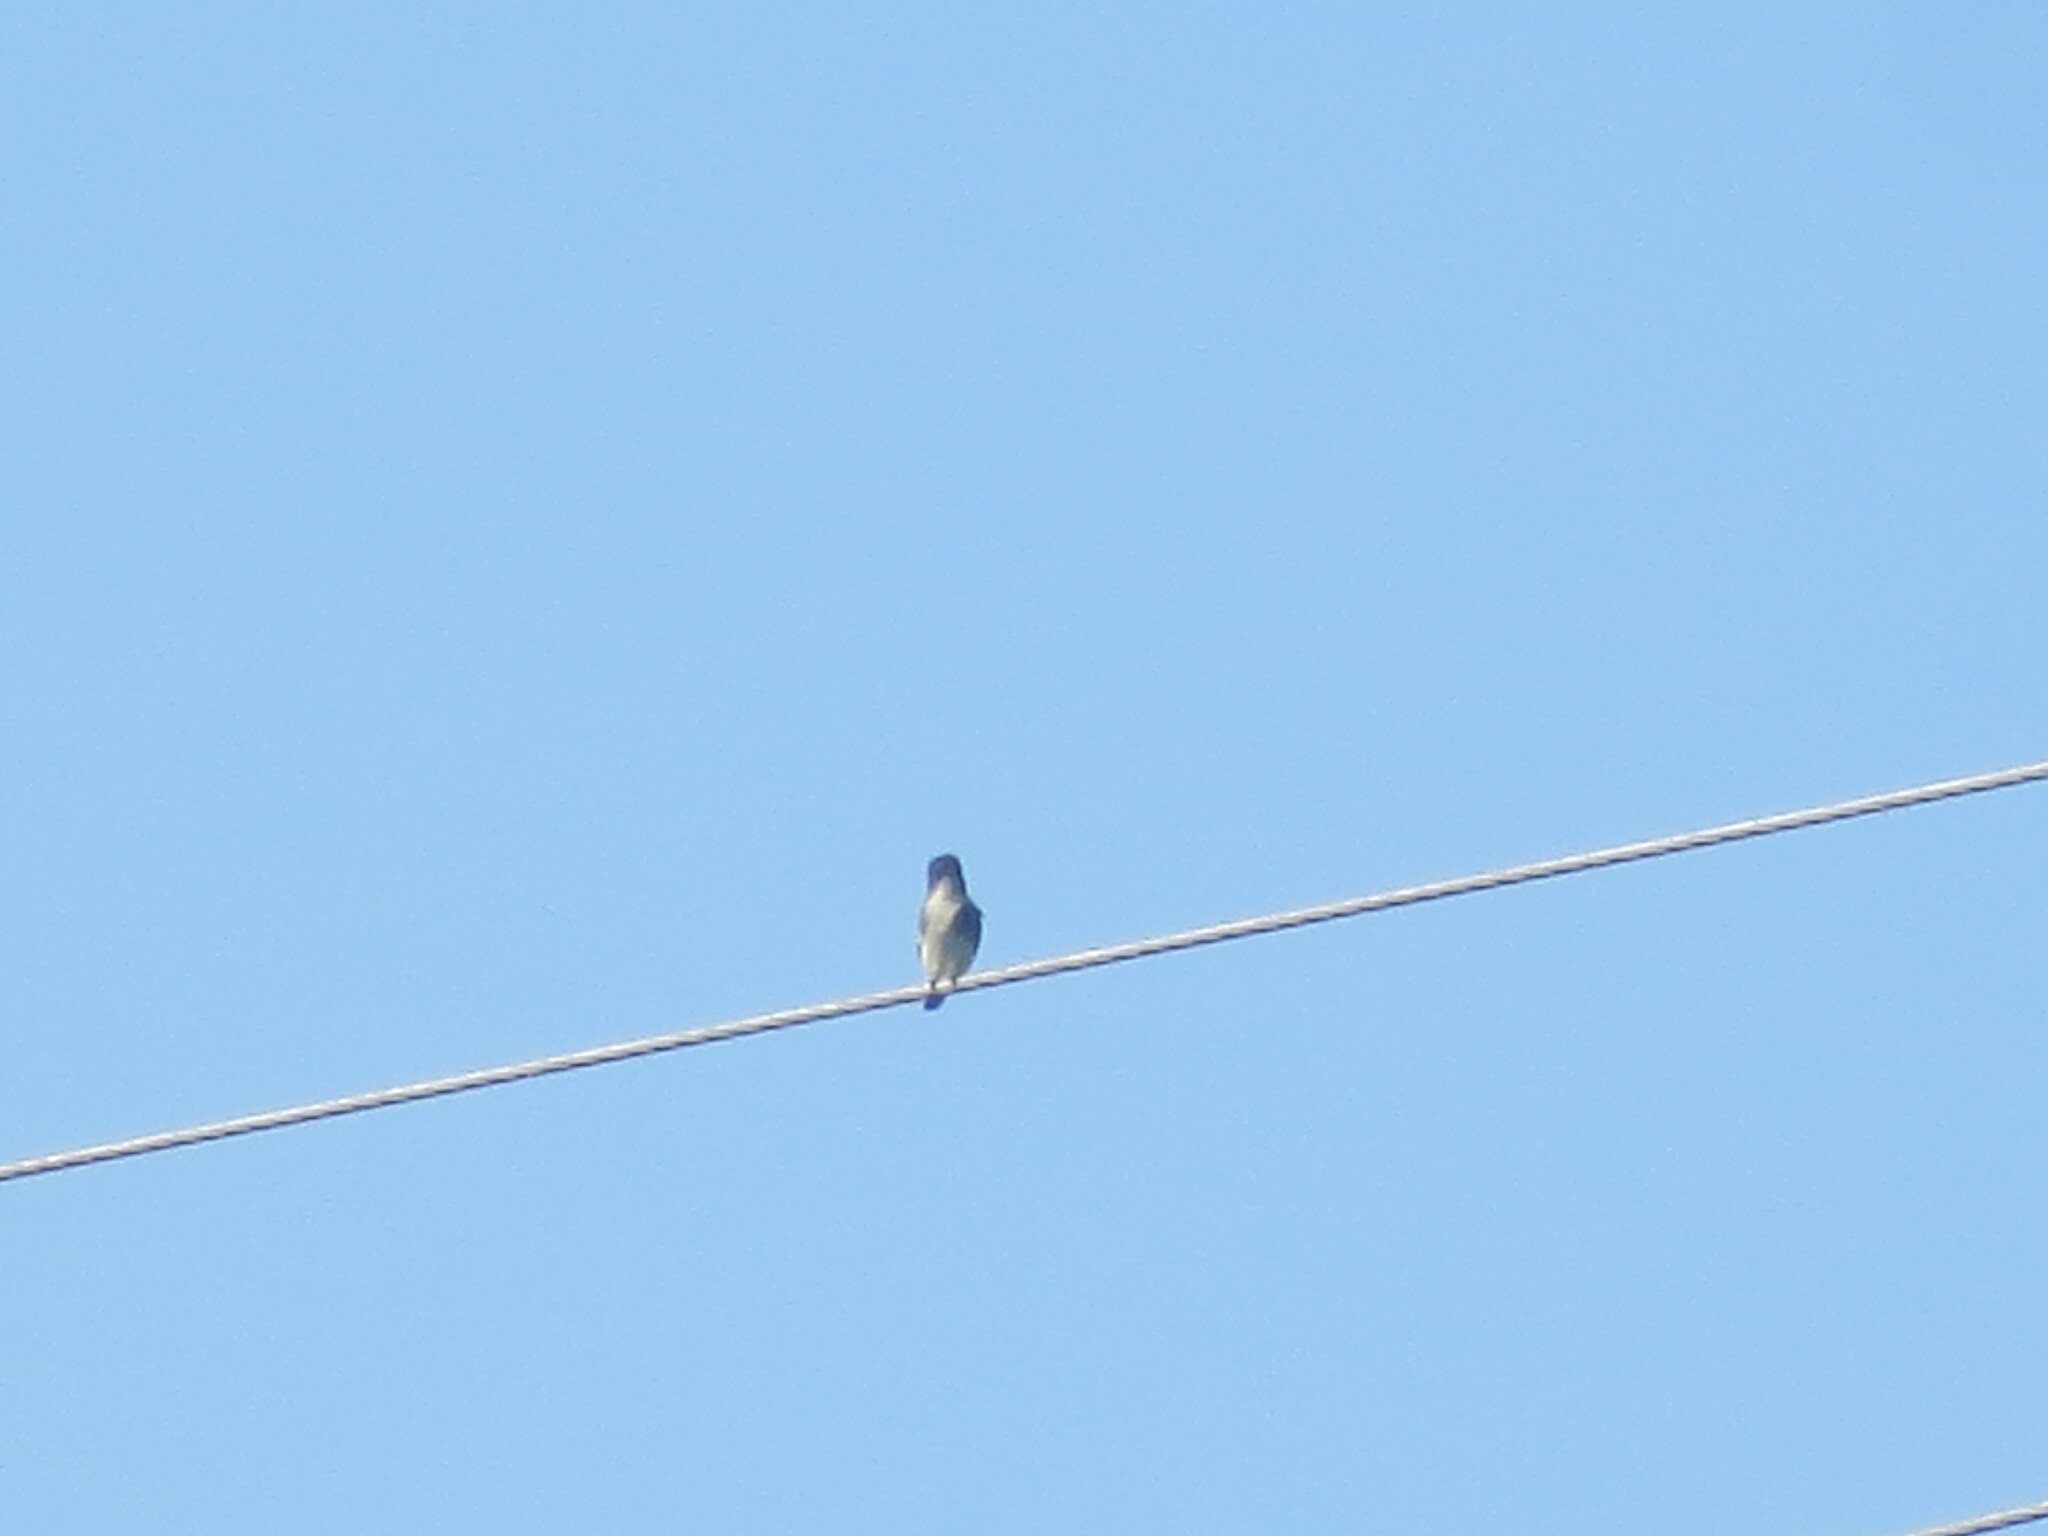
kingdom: Animalia
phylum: Chordata
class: Aves
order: Passeriformes
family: Tyrannidae
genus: Sayornis
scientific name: Sayornis phoebe
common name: Eastern phoebe
